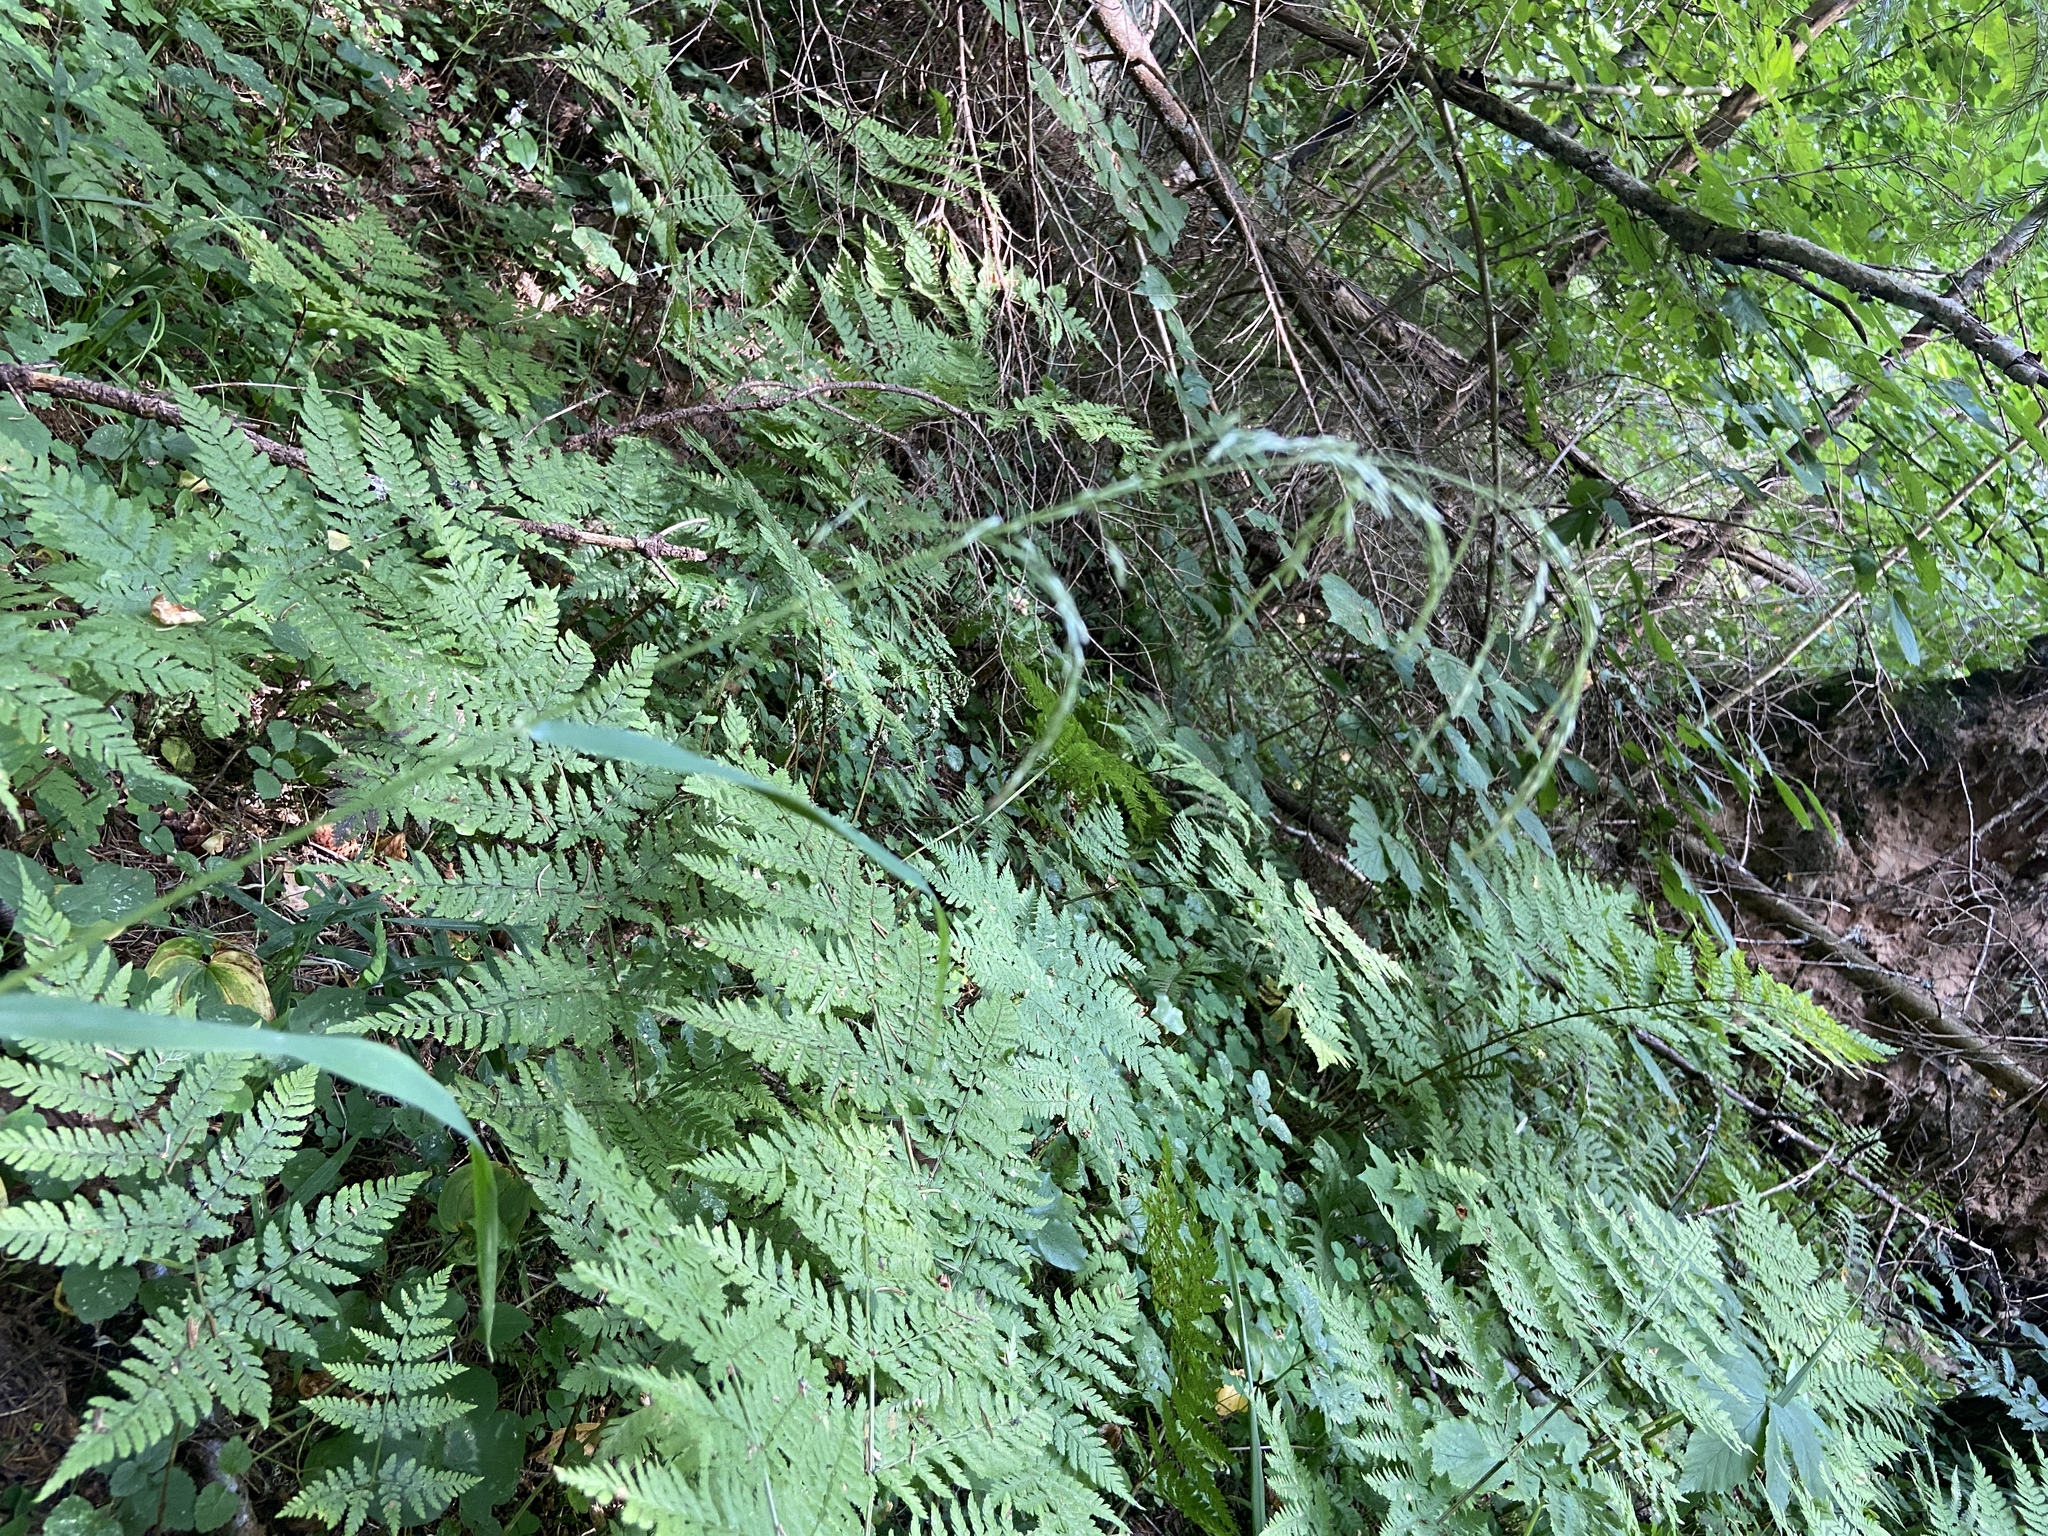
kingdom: Plantae
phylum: Tracheophyta
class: Liliopsida
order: Poales
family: Poaceae
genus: Cinna
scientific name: Cinna latifolia
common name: Drooping woodreed
